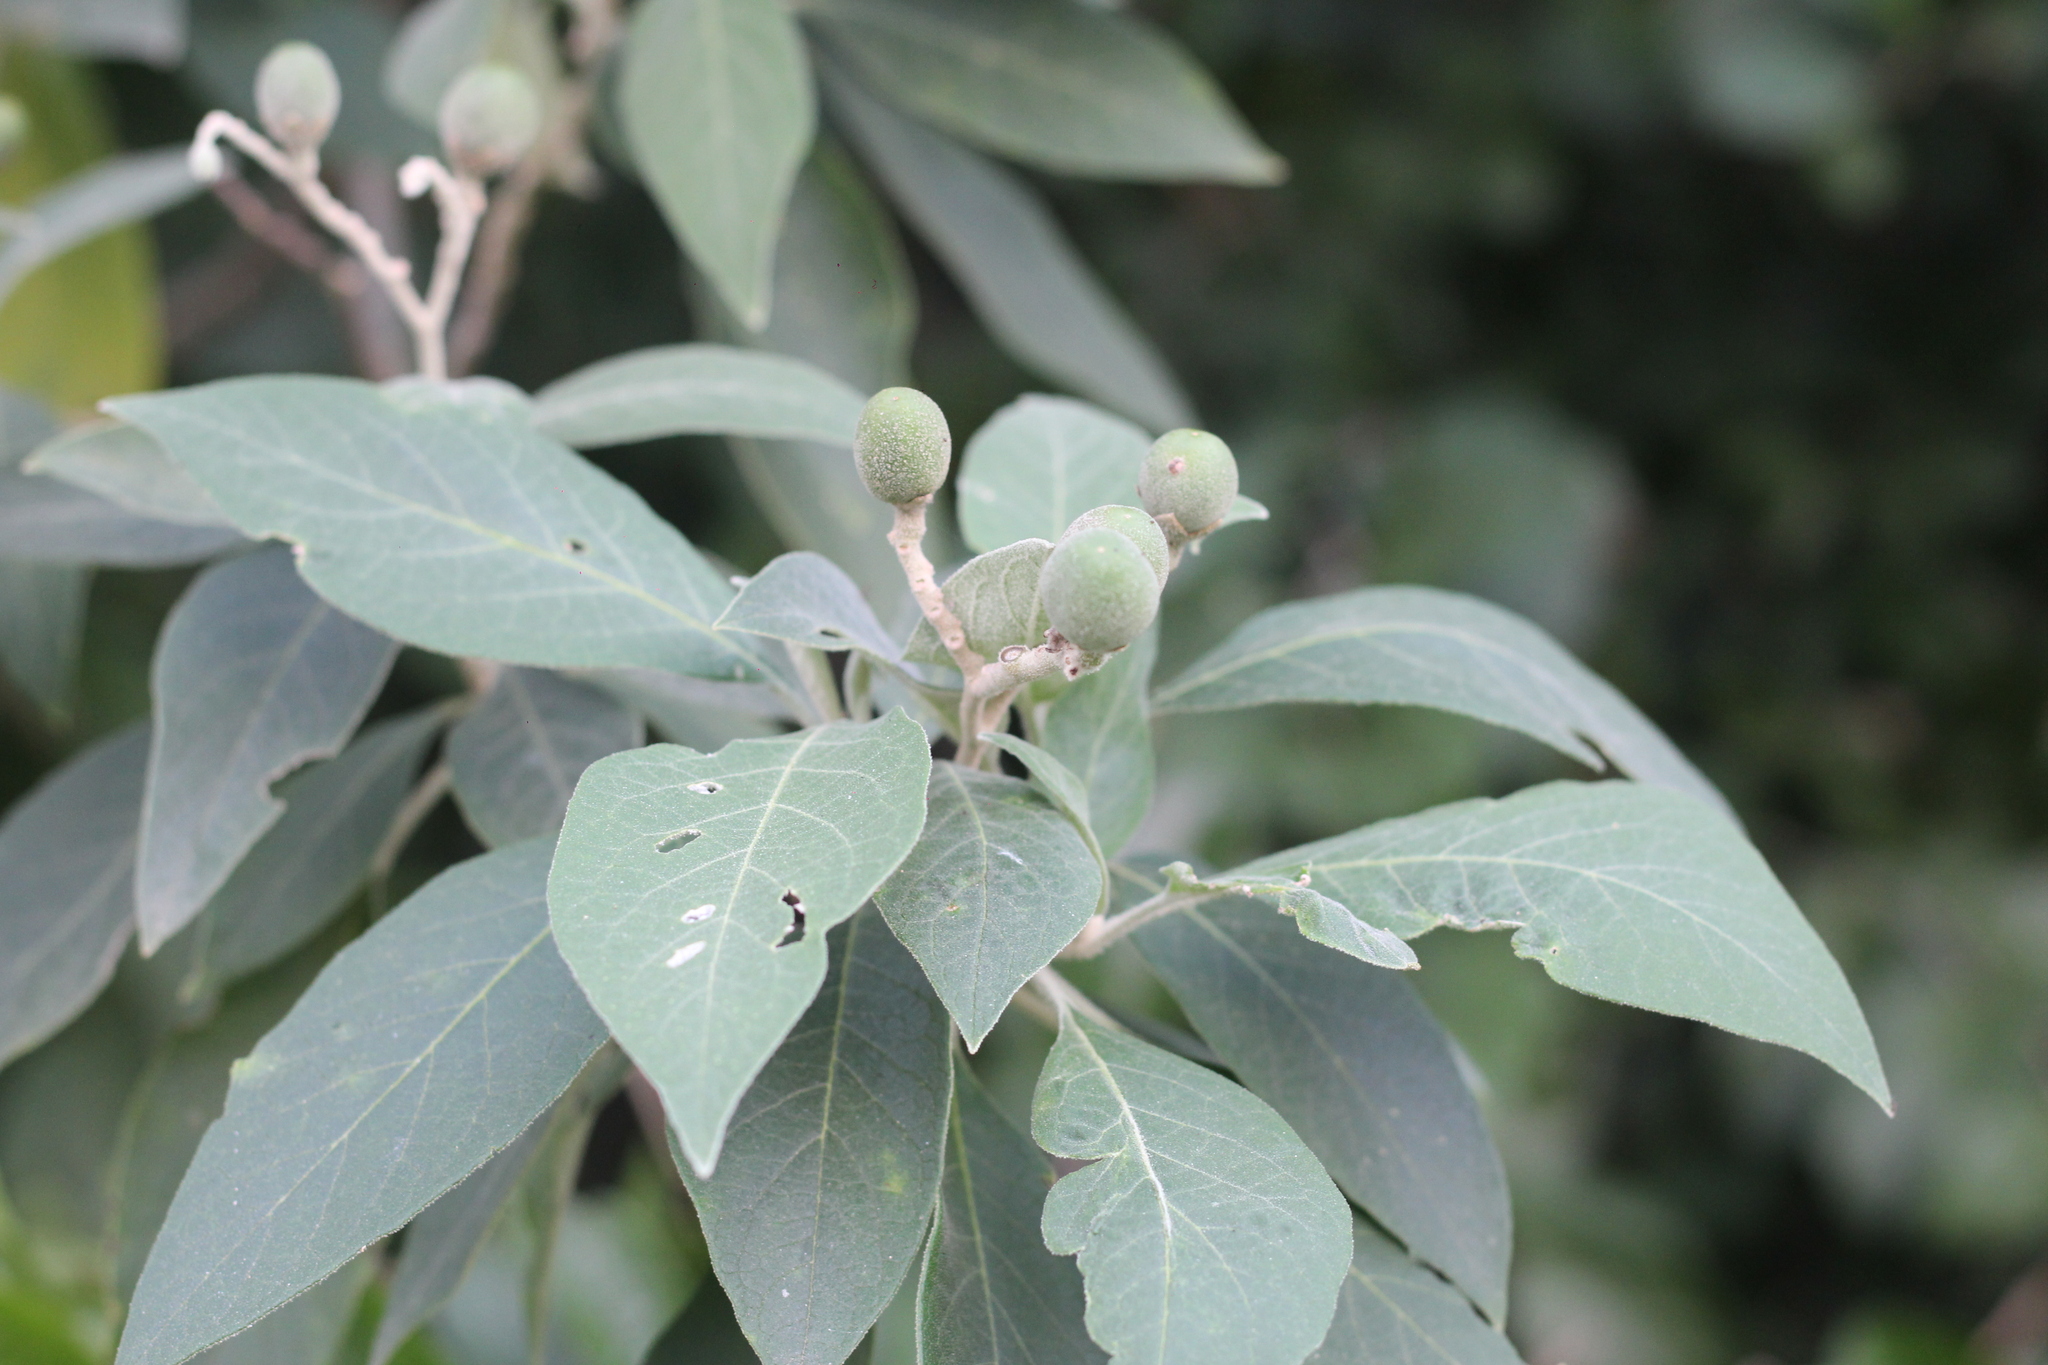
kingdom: Plantae
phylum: Tracheophyta
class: Magnoliopsida
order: Solanales
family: Solanaceae
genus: Solanum
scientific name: Solanum granulosoleprosum
